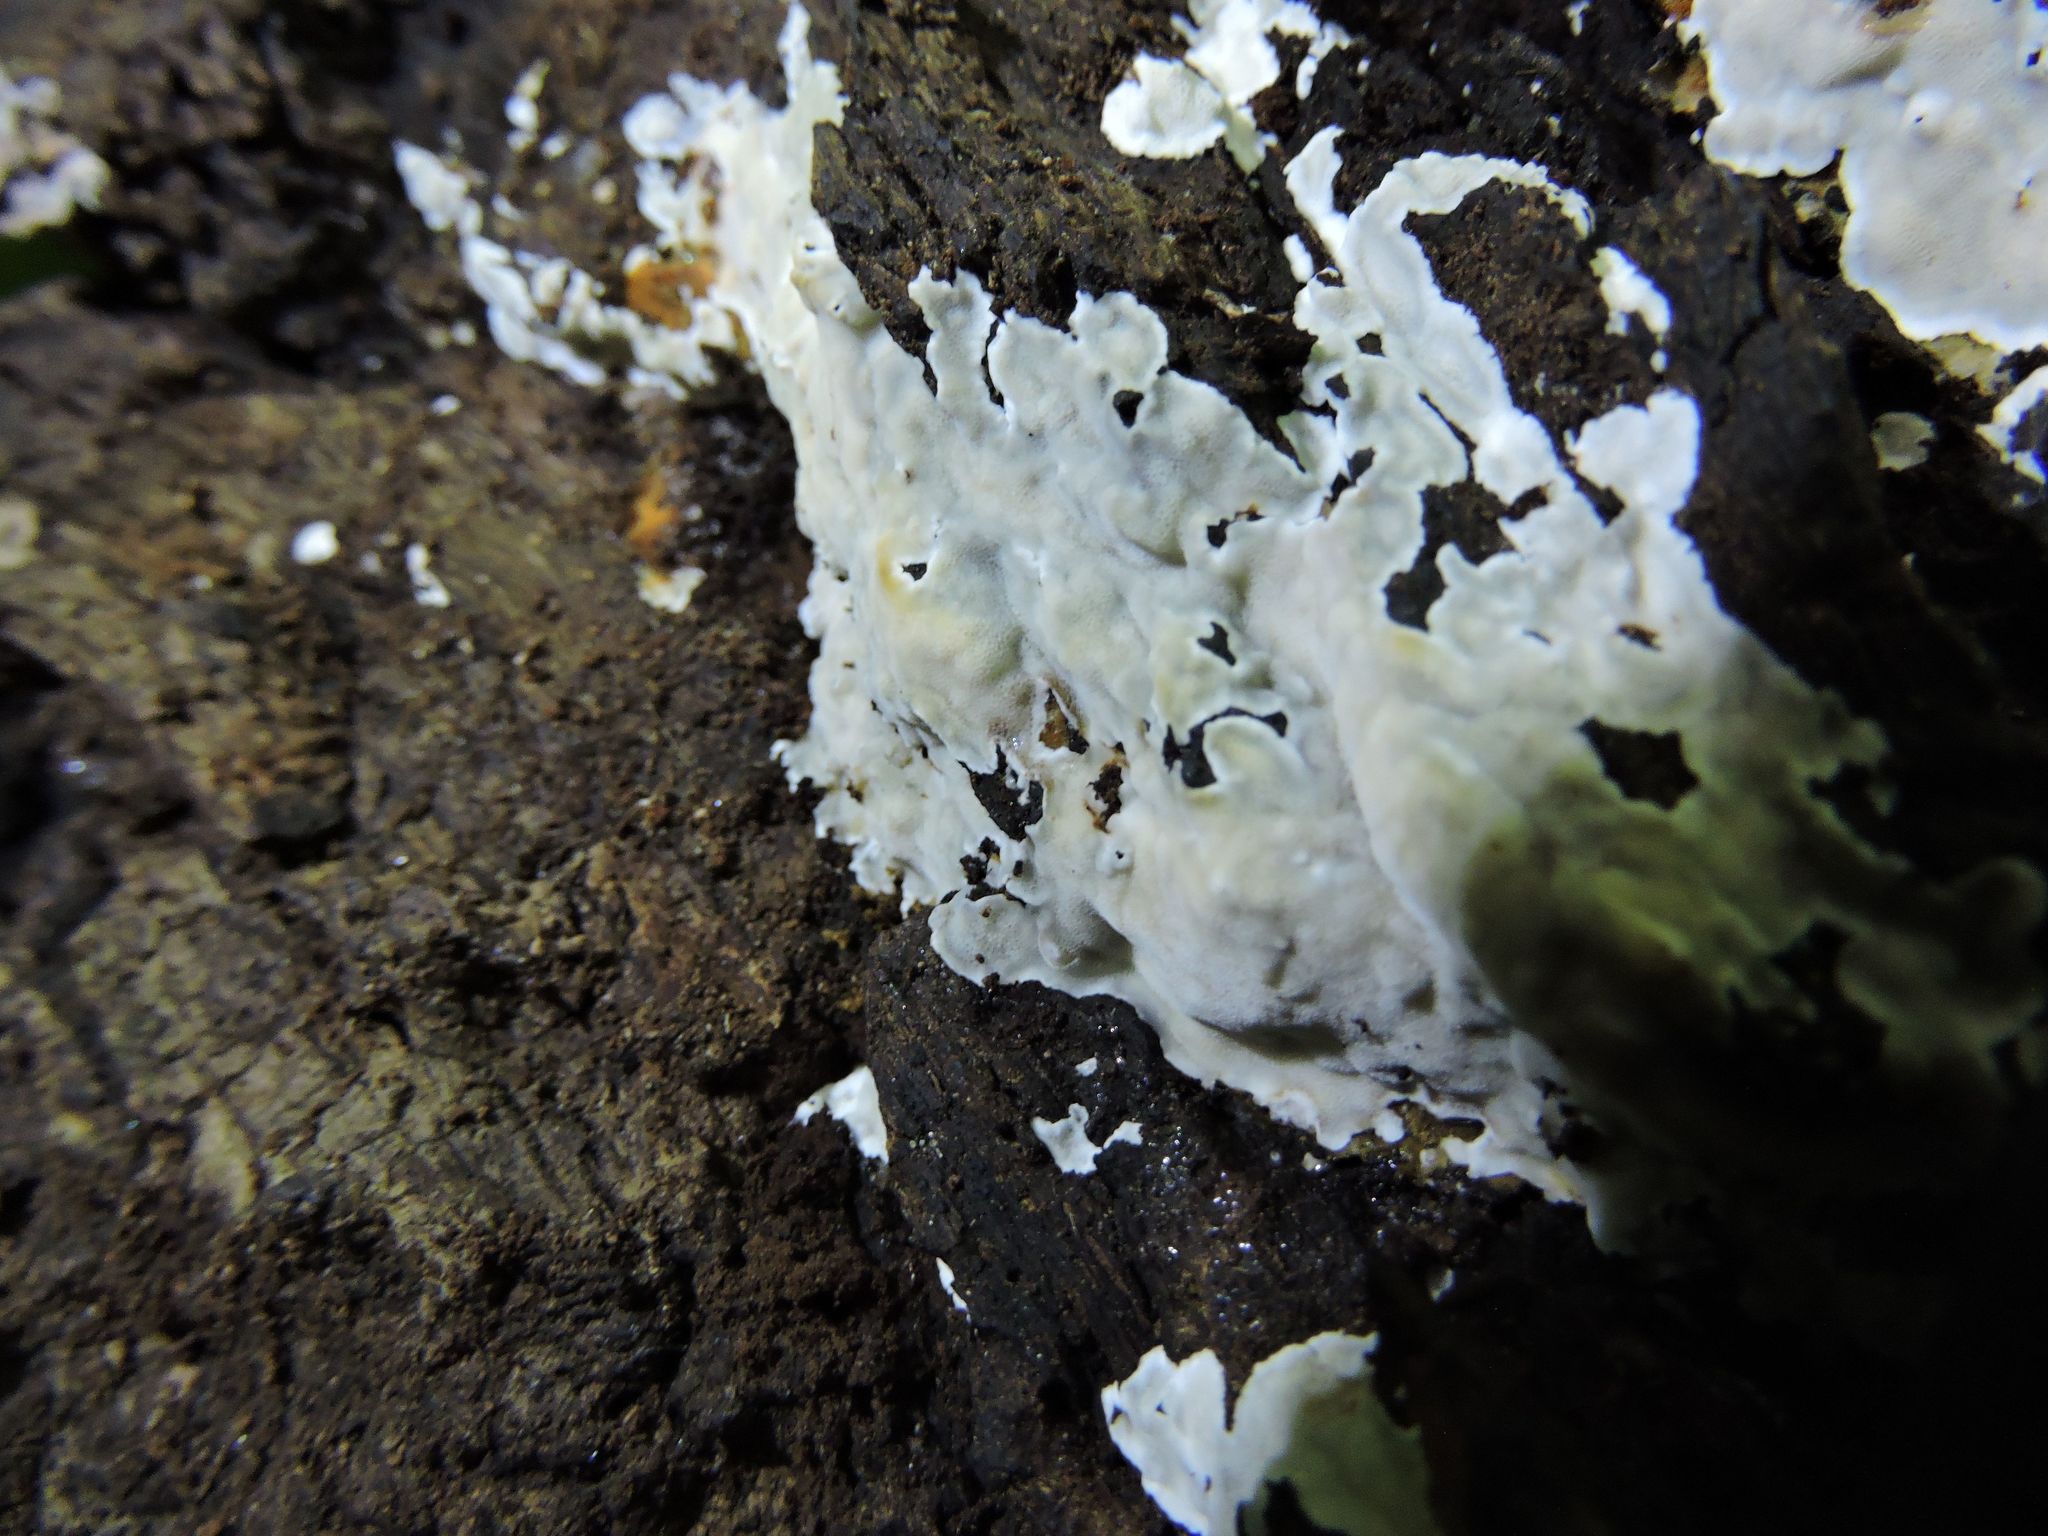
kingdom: Fungi
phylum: Ascomycota
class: Sordariomycetes
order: Xylariales
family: Xylariaceae
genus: Kretzschmaria
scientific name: Kretzschmaria deusta
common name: Brittle cinder
